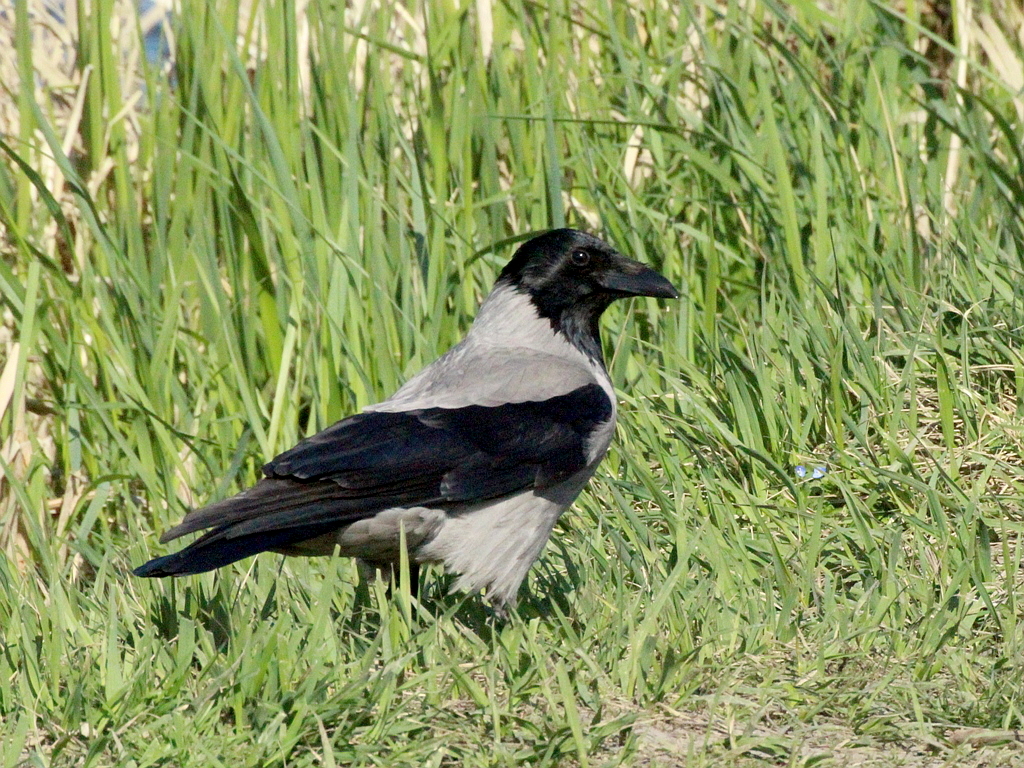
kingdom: Animalia
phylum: Chordata
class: Aves
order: Passeriformes
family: Corvidae
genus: Corvus
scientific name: Corvus cornix
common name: Hooded crow
